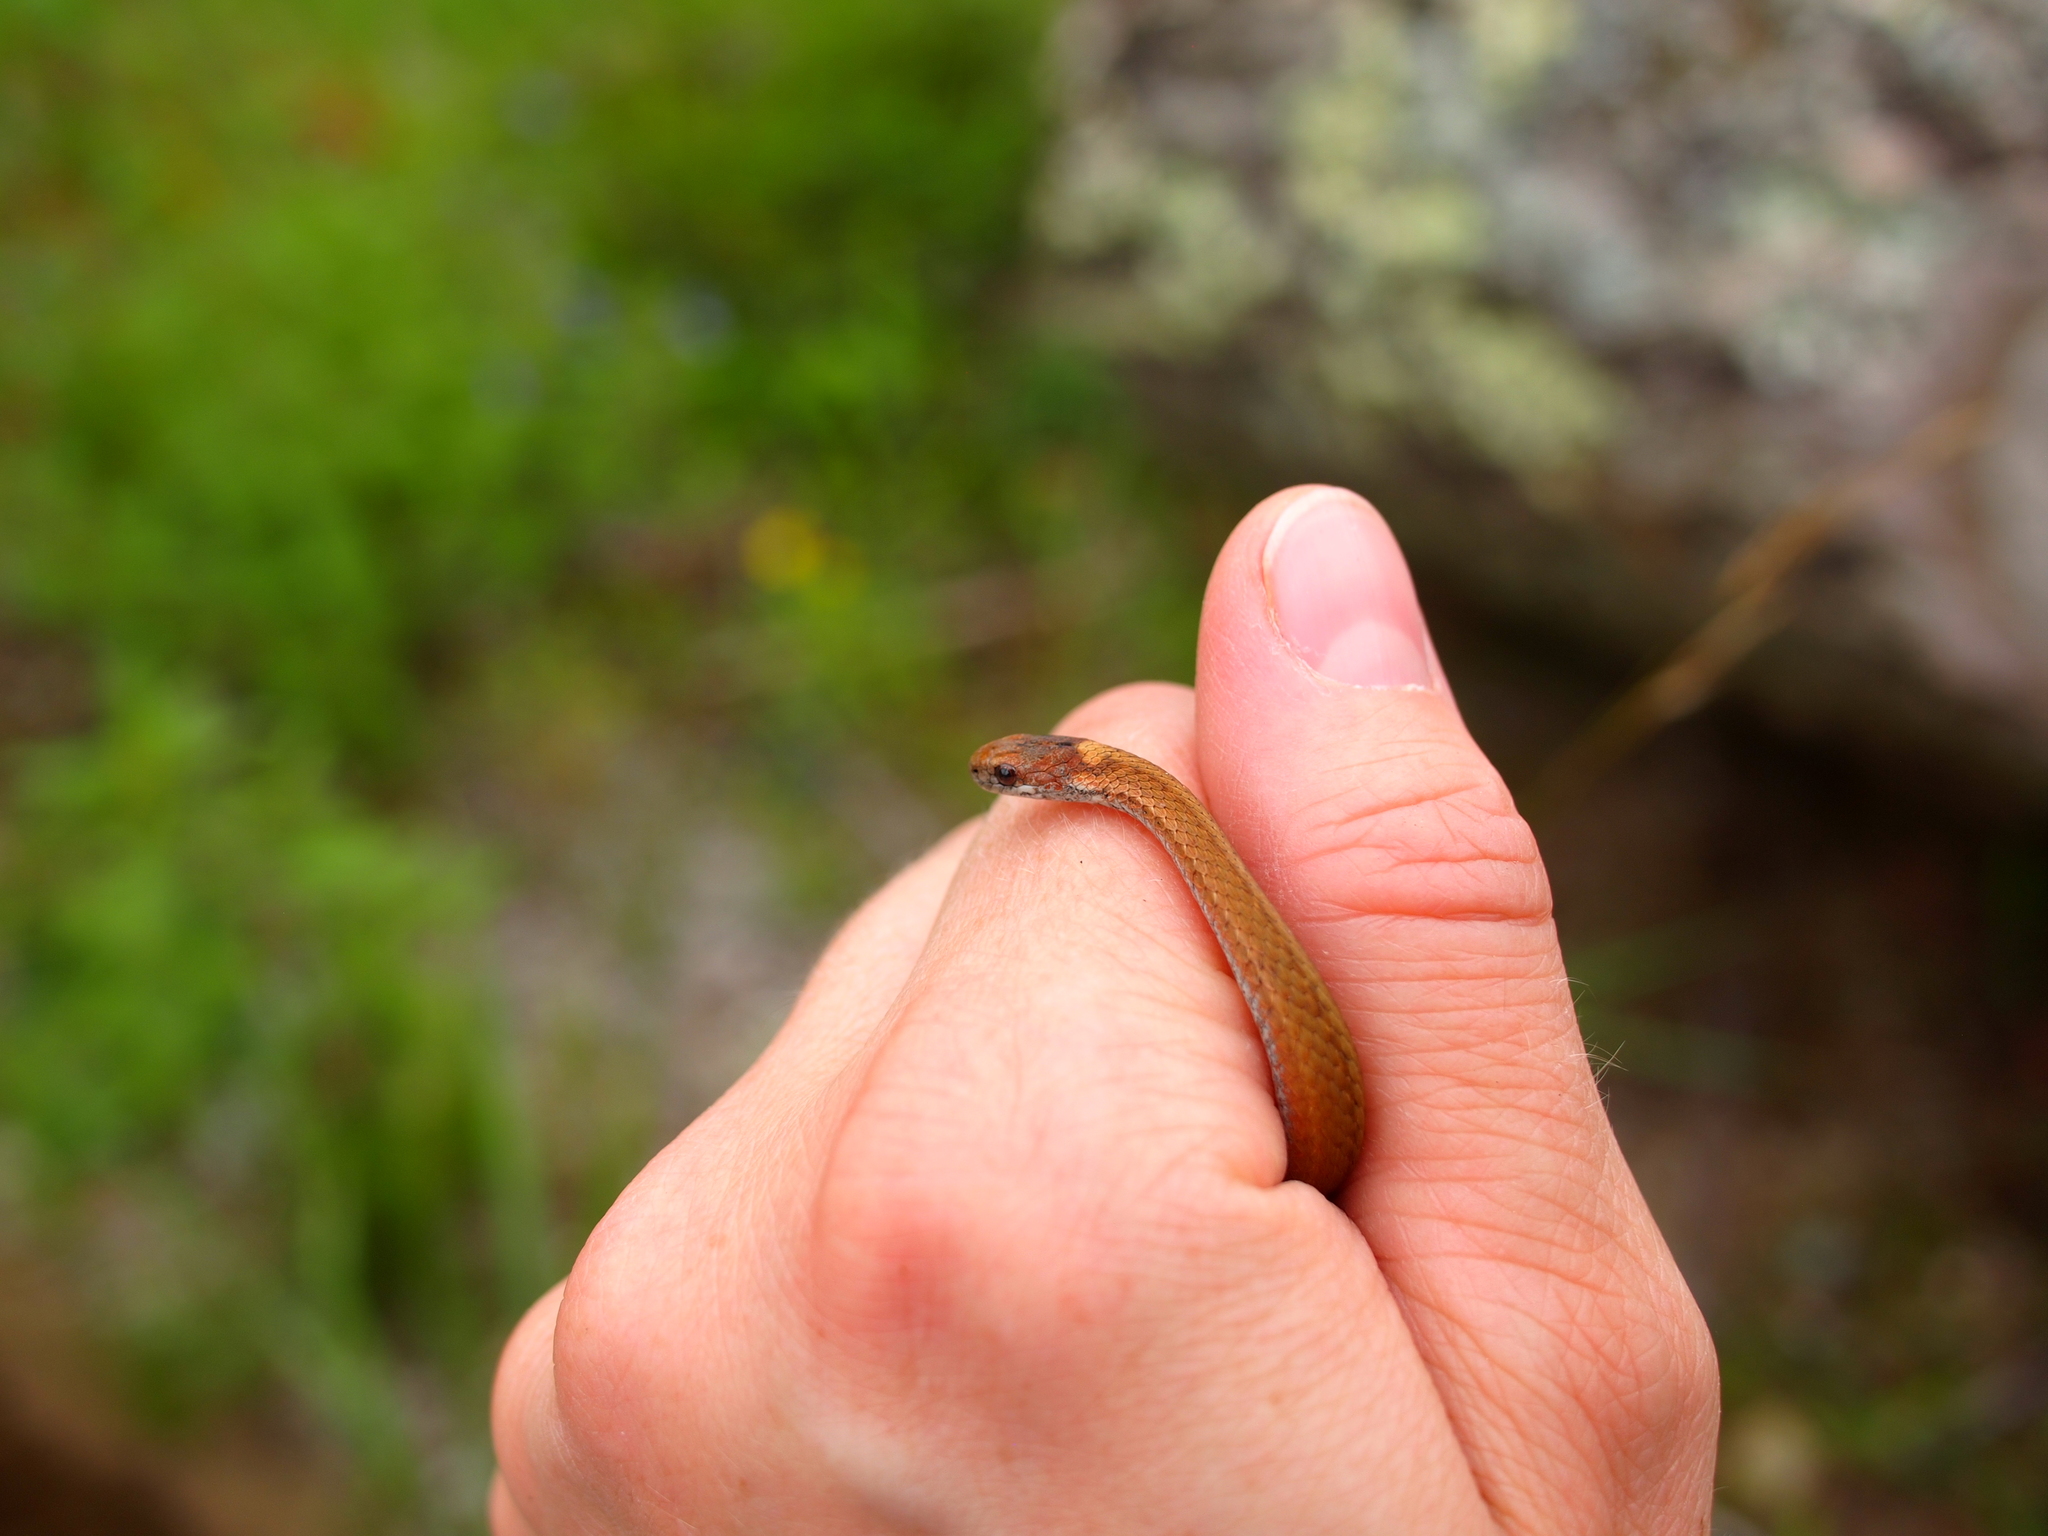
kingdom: Animalia
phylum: Chordata
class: Squamata
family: Colubridae
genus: Storeria
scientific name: Storeria occipitomaculata
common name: Redbelly snake
